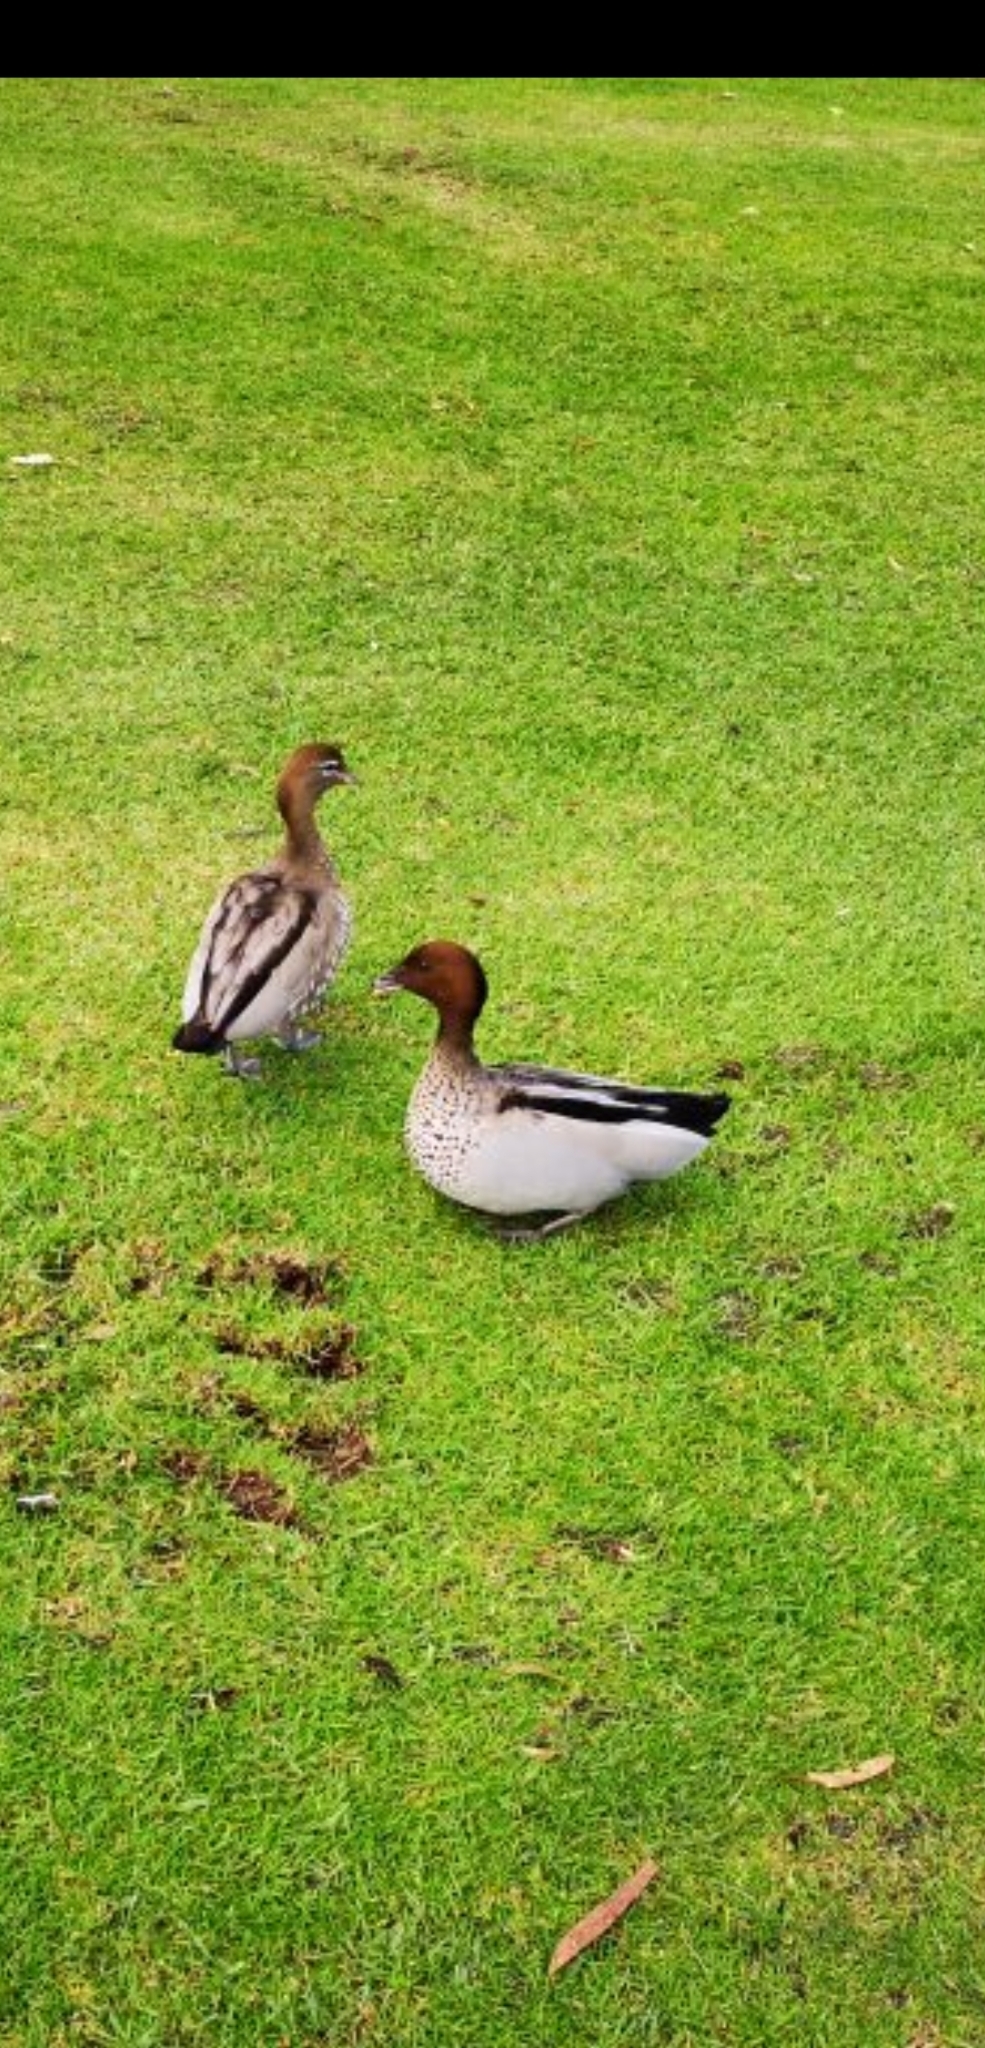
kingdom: Animalia
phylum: Chordata
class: Aves
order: Anseriformes
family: Anatidae
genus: Chenonetta
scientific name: Chenonetta jubata
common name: Maned duck
